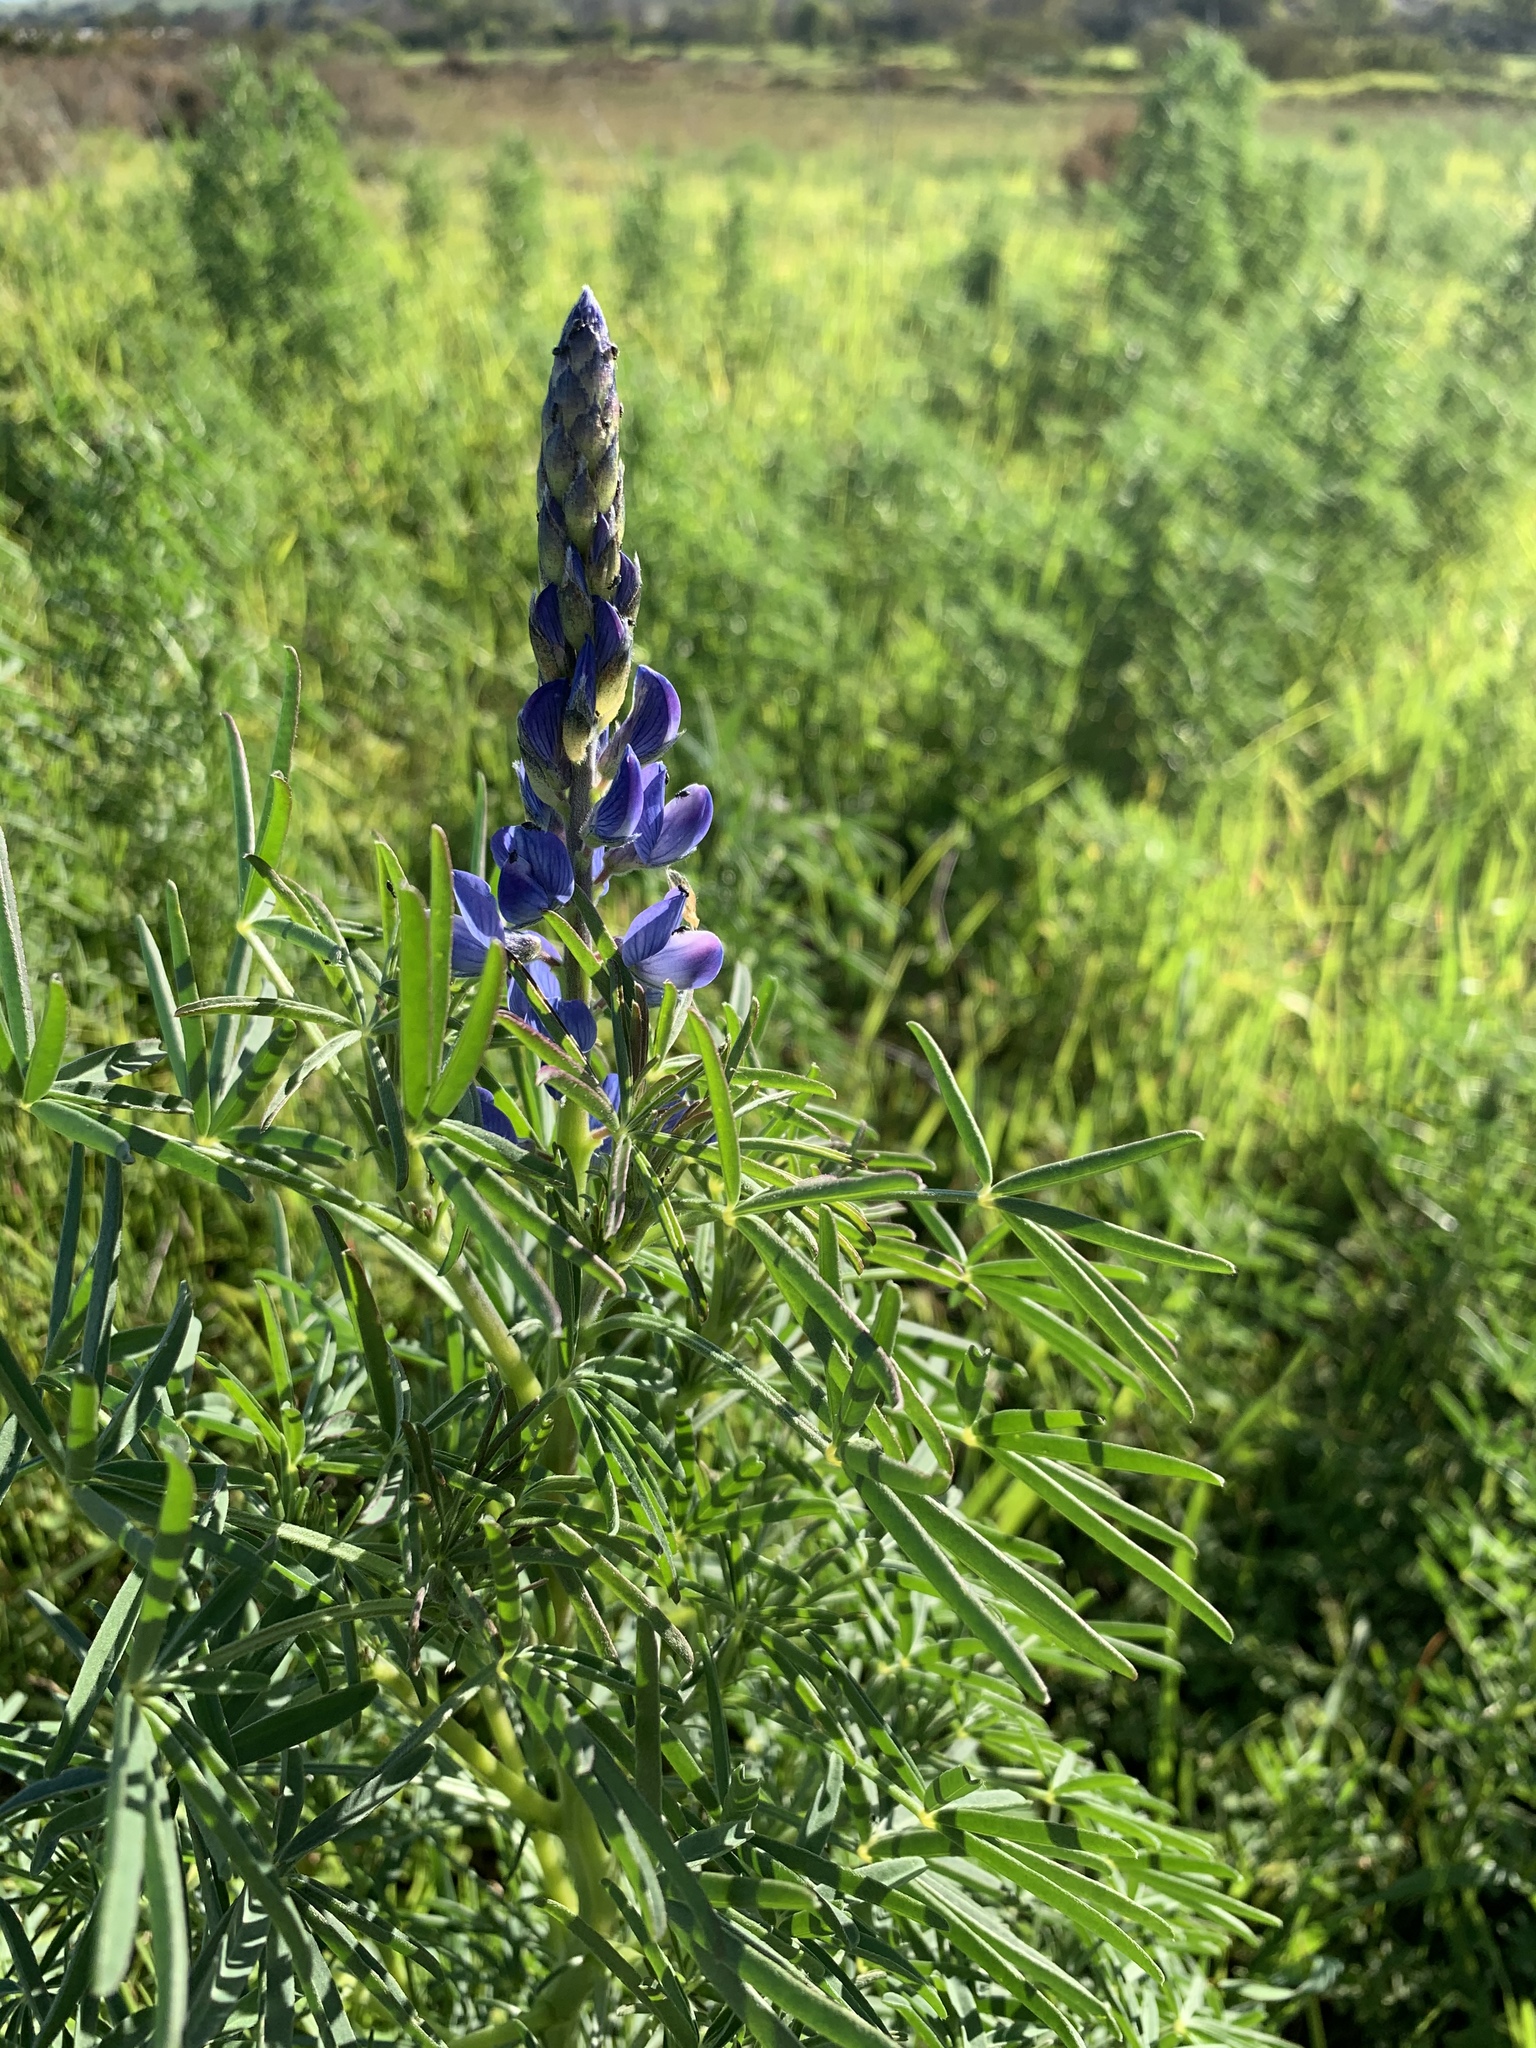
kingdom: Plantae
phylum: Tracheophyta
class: Magnoliopsida
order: Fabales
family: Fabaceae
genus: Lupinus
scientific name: Lupinus angustifolius
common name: Narrow-leaved lupin
